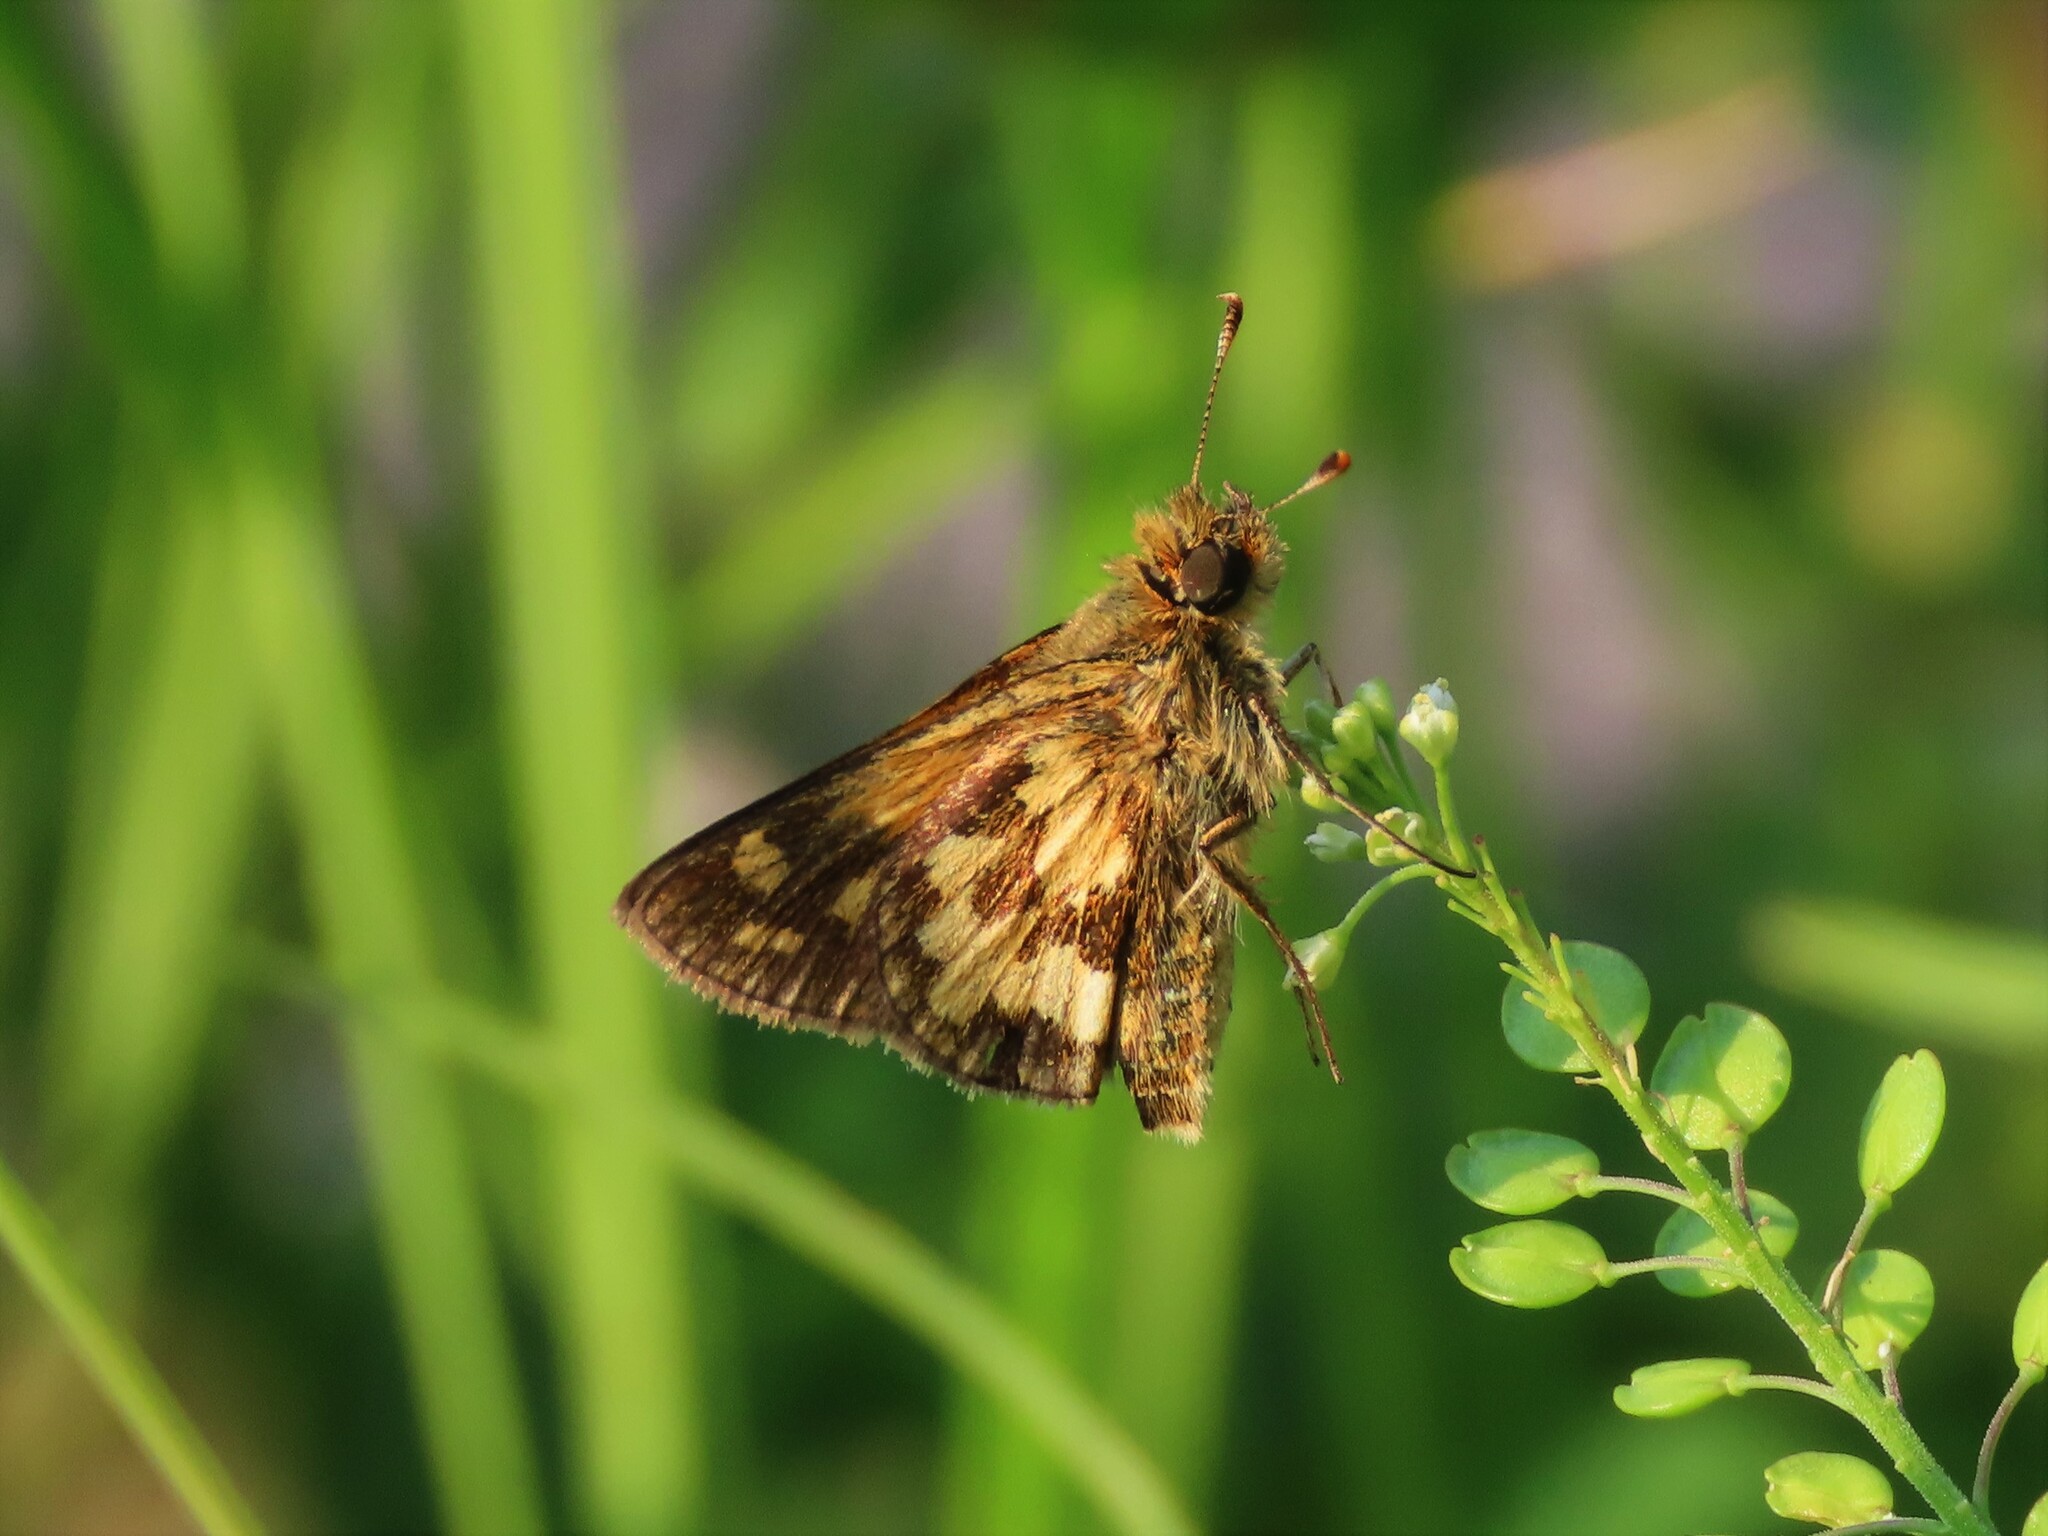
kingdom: Animalia
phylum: Arthropoda
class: Insecta
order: Lepidoptera
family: Hesperiidae
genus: Polites
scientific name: Polites coras
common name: Peck's skipper
